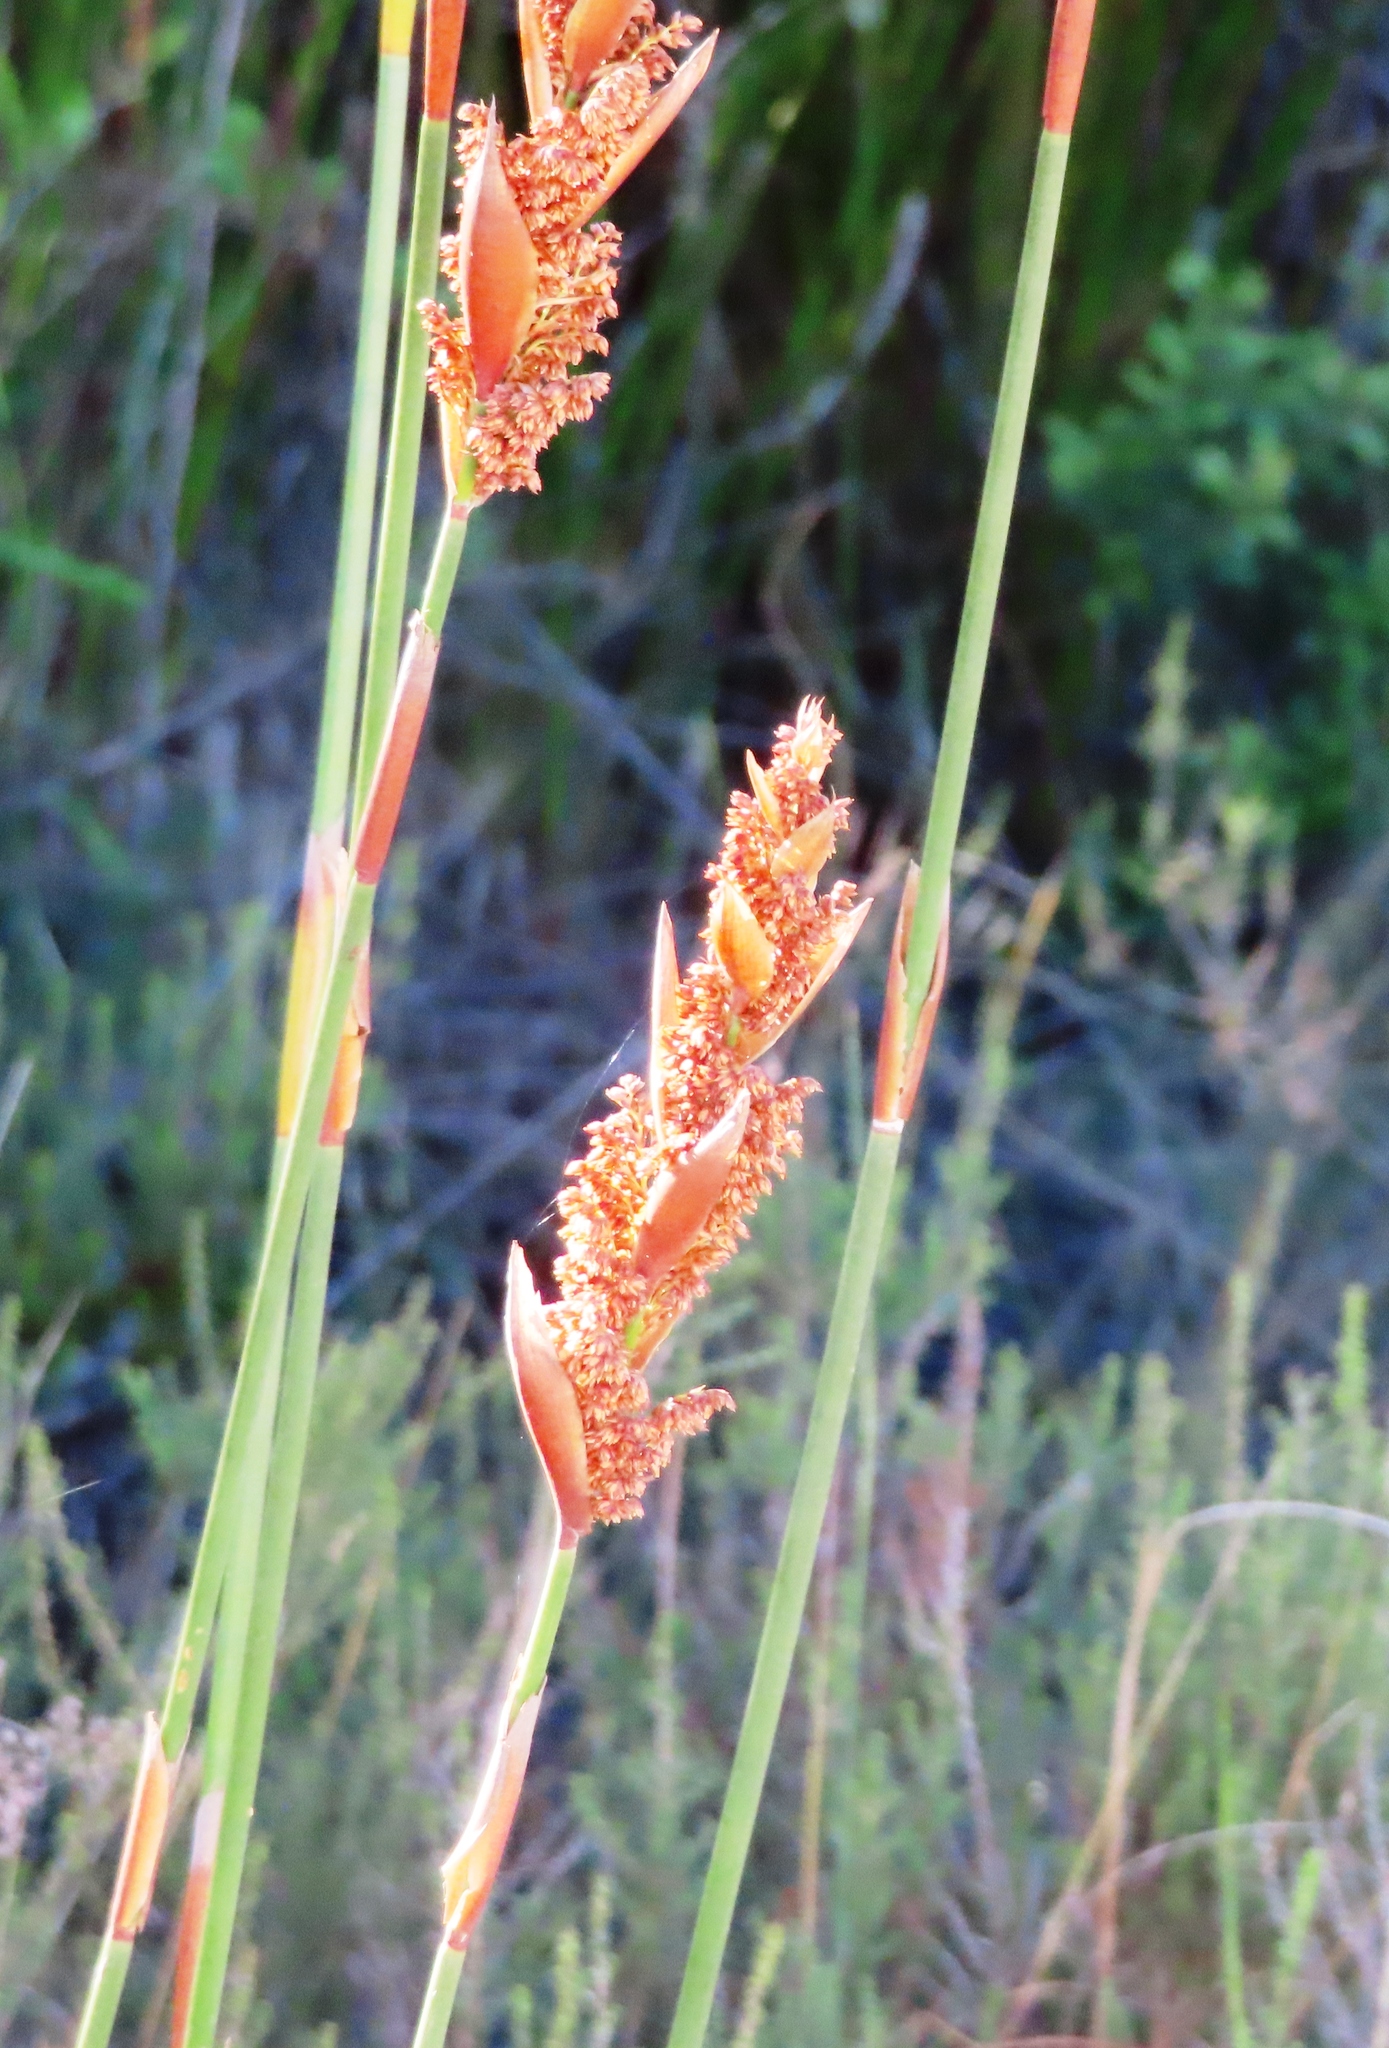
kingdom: Plantae
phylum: Tracheophyta
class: Liliopsida
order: Poales
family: Restionaceae
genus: Elegia
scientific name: Elegia equisetacea
